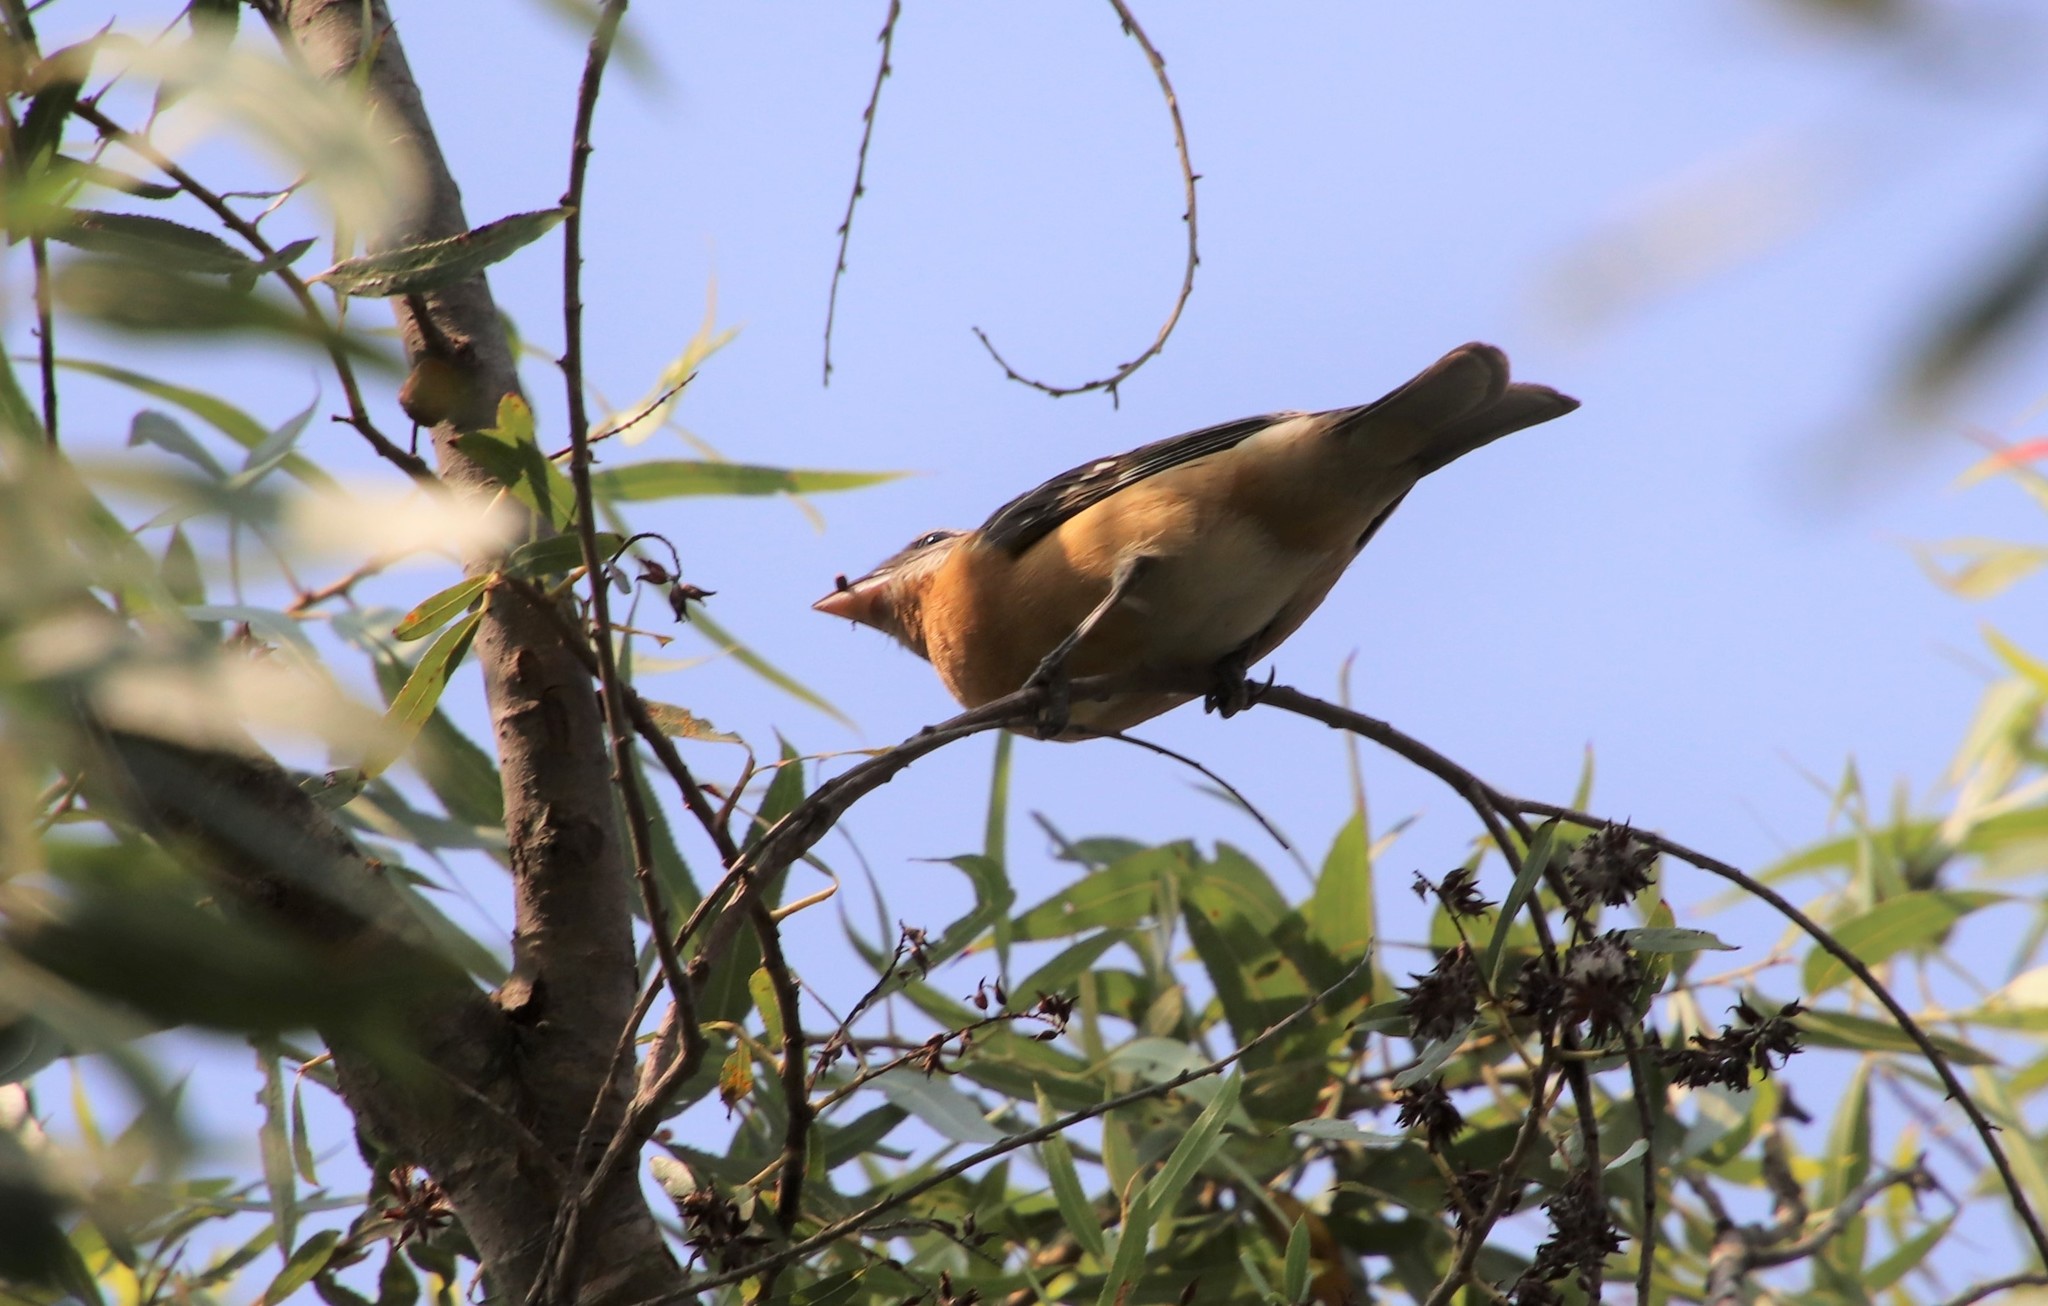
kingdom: Animalia
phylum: Chordata
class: Aves
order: Passeriformes
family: Cardinalidae
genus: Pheucticus
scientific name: Pheucticus melanocephalus
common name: Black-headed grosbeak
